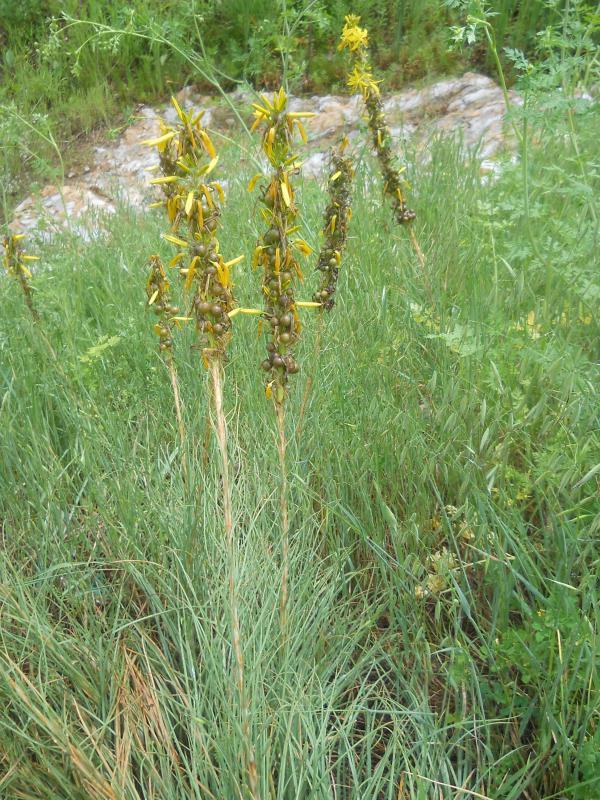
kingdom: Plantae
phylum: Tracheophyta
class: Liliopsida
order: Asparagales
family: Asphodelaceae
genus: Asphodeline
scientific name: Asphodeline lutea
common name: Yellow asphodel
